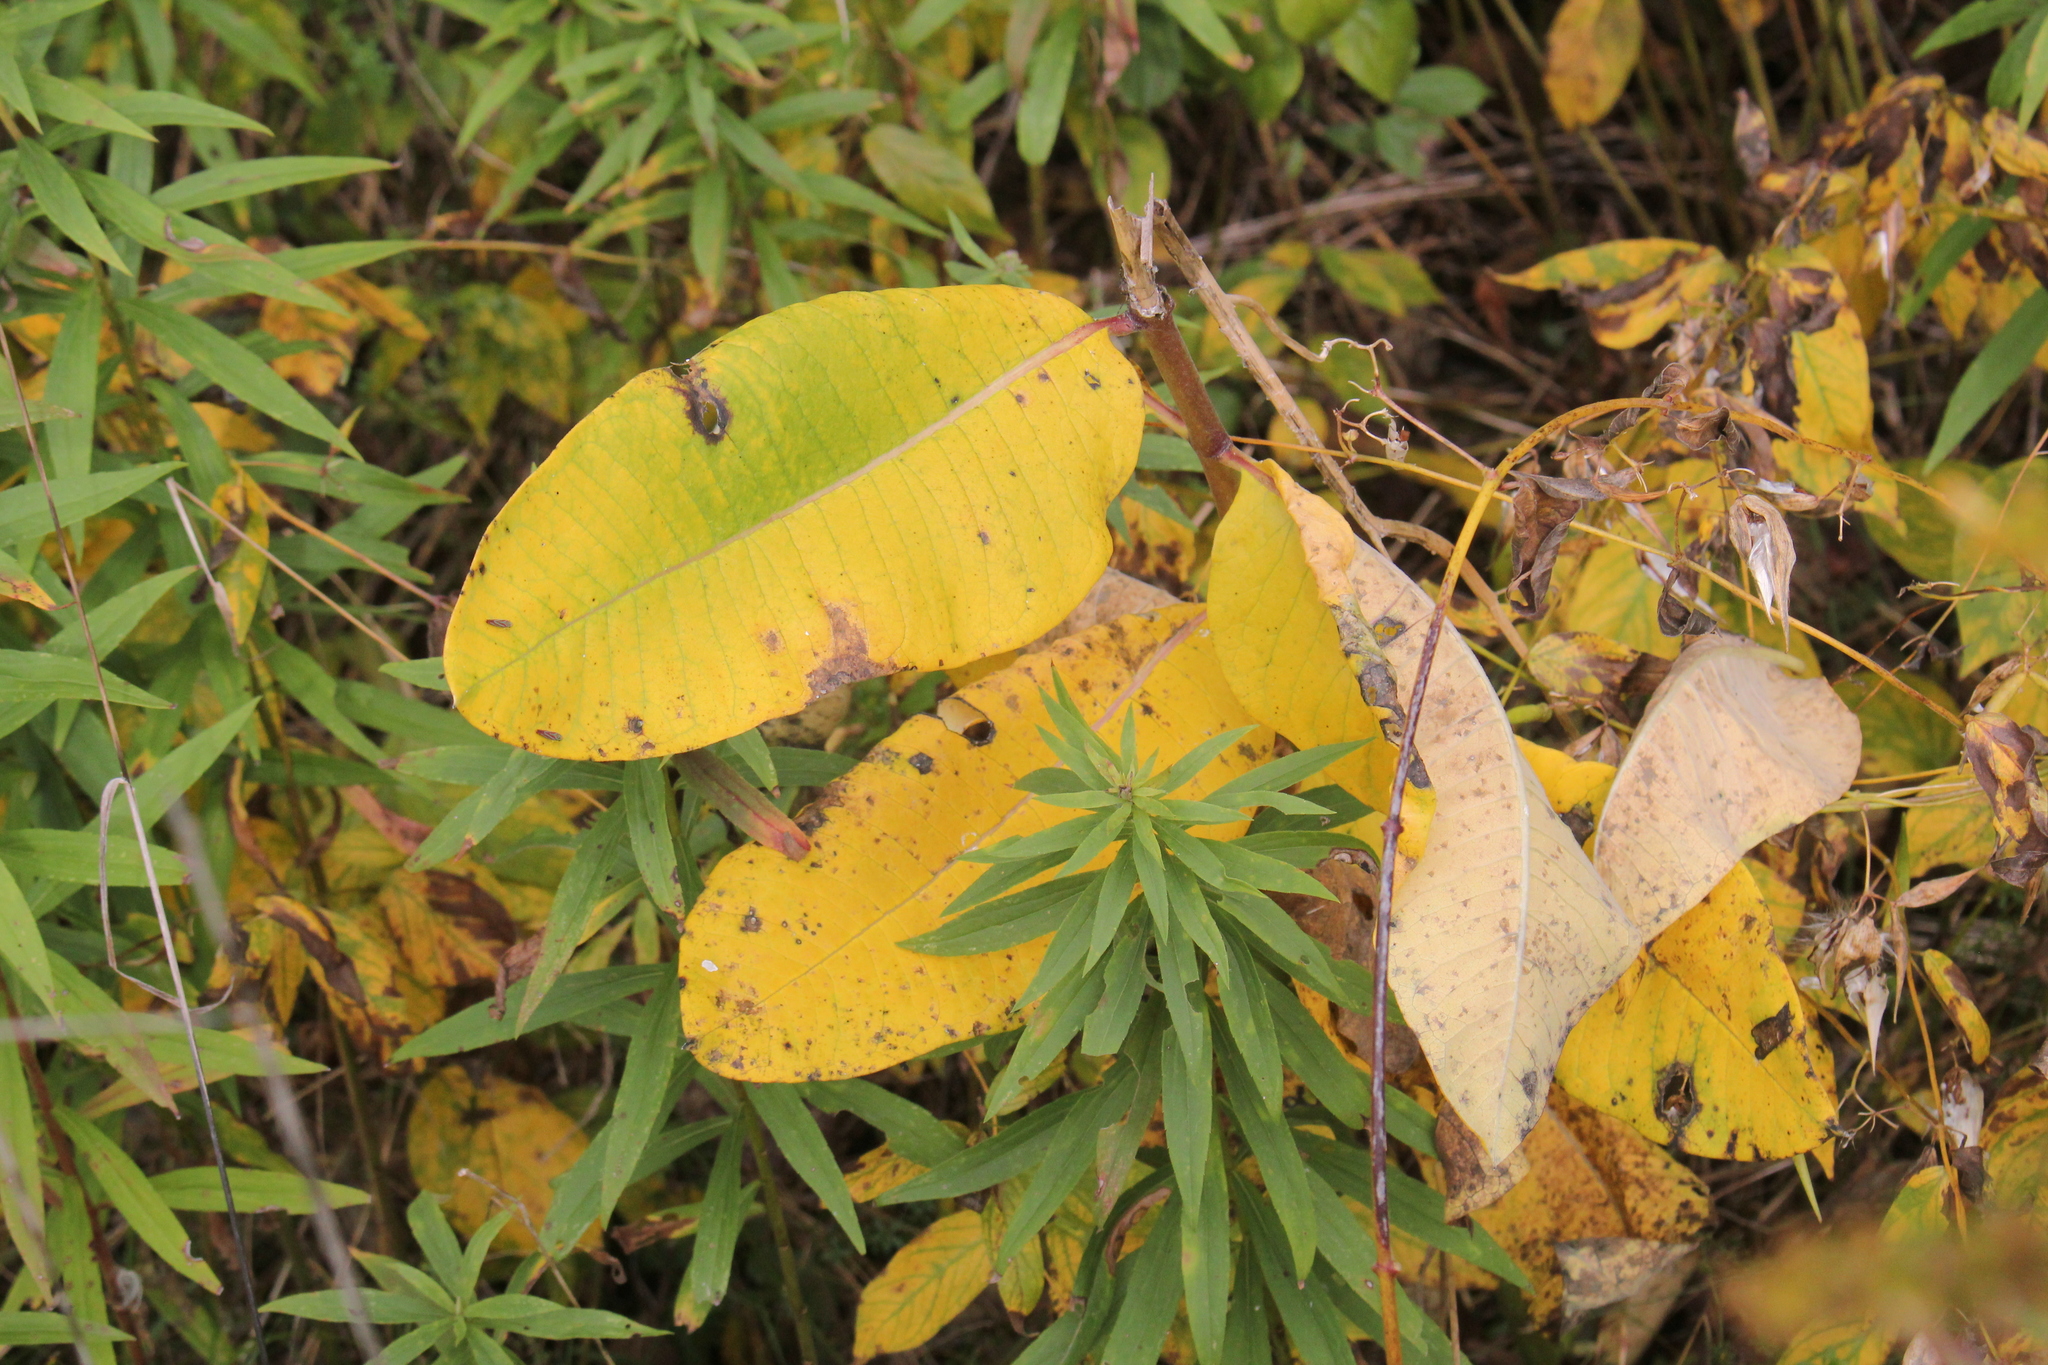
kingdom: Plantae
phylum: Tracheophyta
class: Magnoliopsida
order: Gentianales
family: Apocynaceae
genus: Asclepias
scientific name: Asclepias syriaca
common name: Common milkweed
